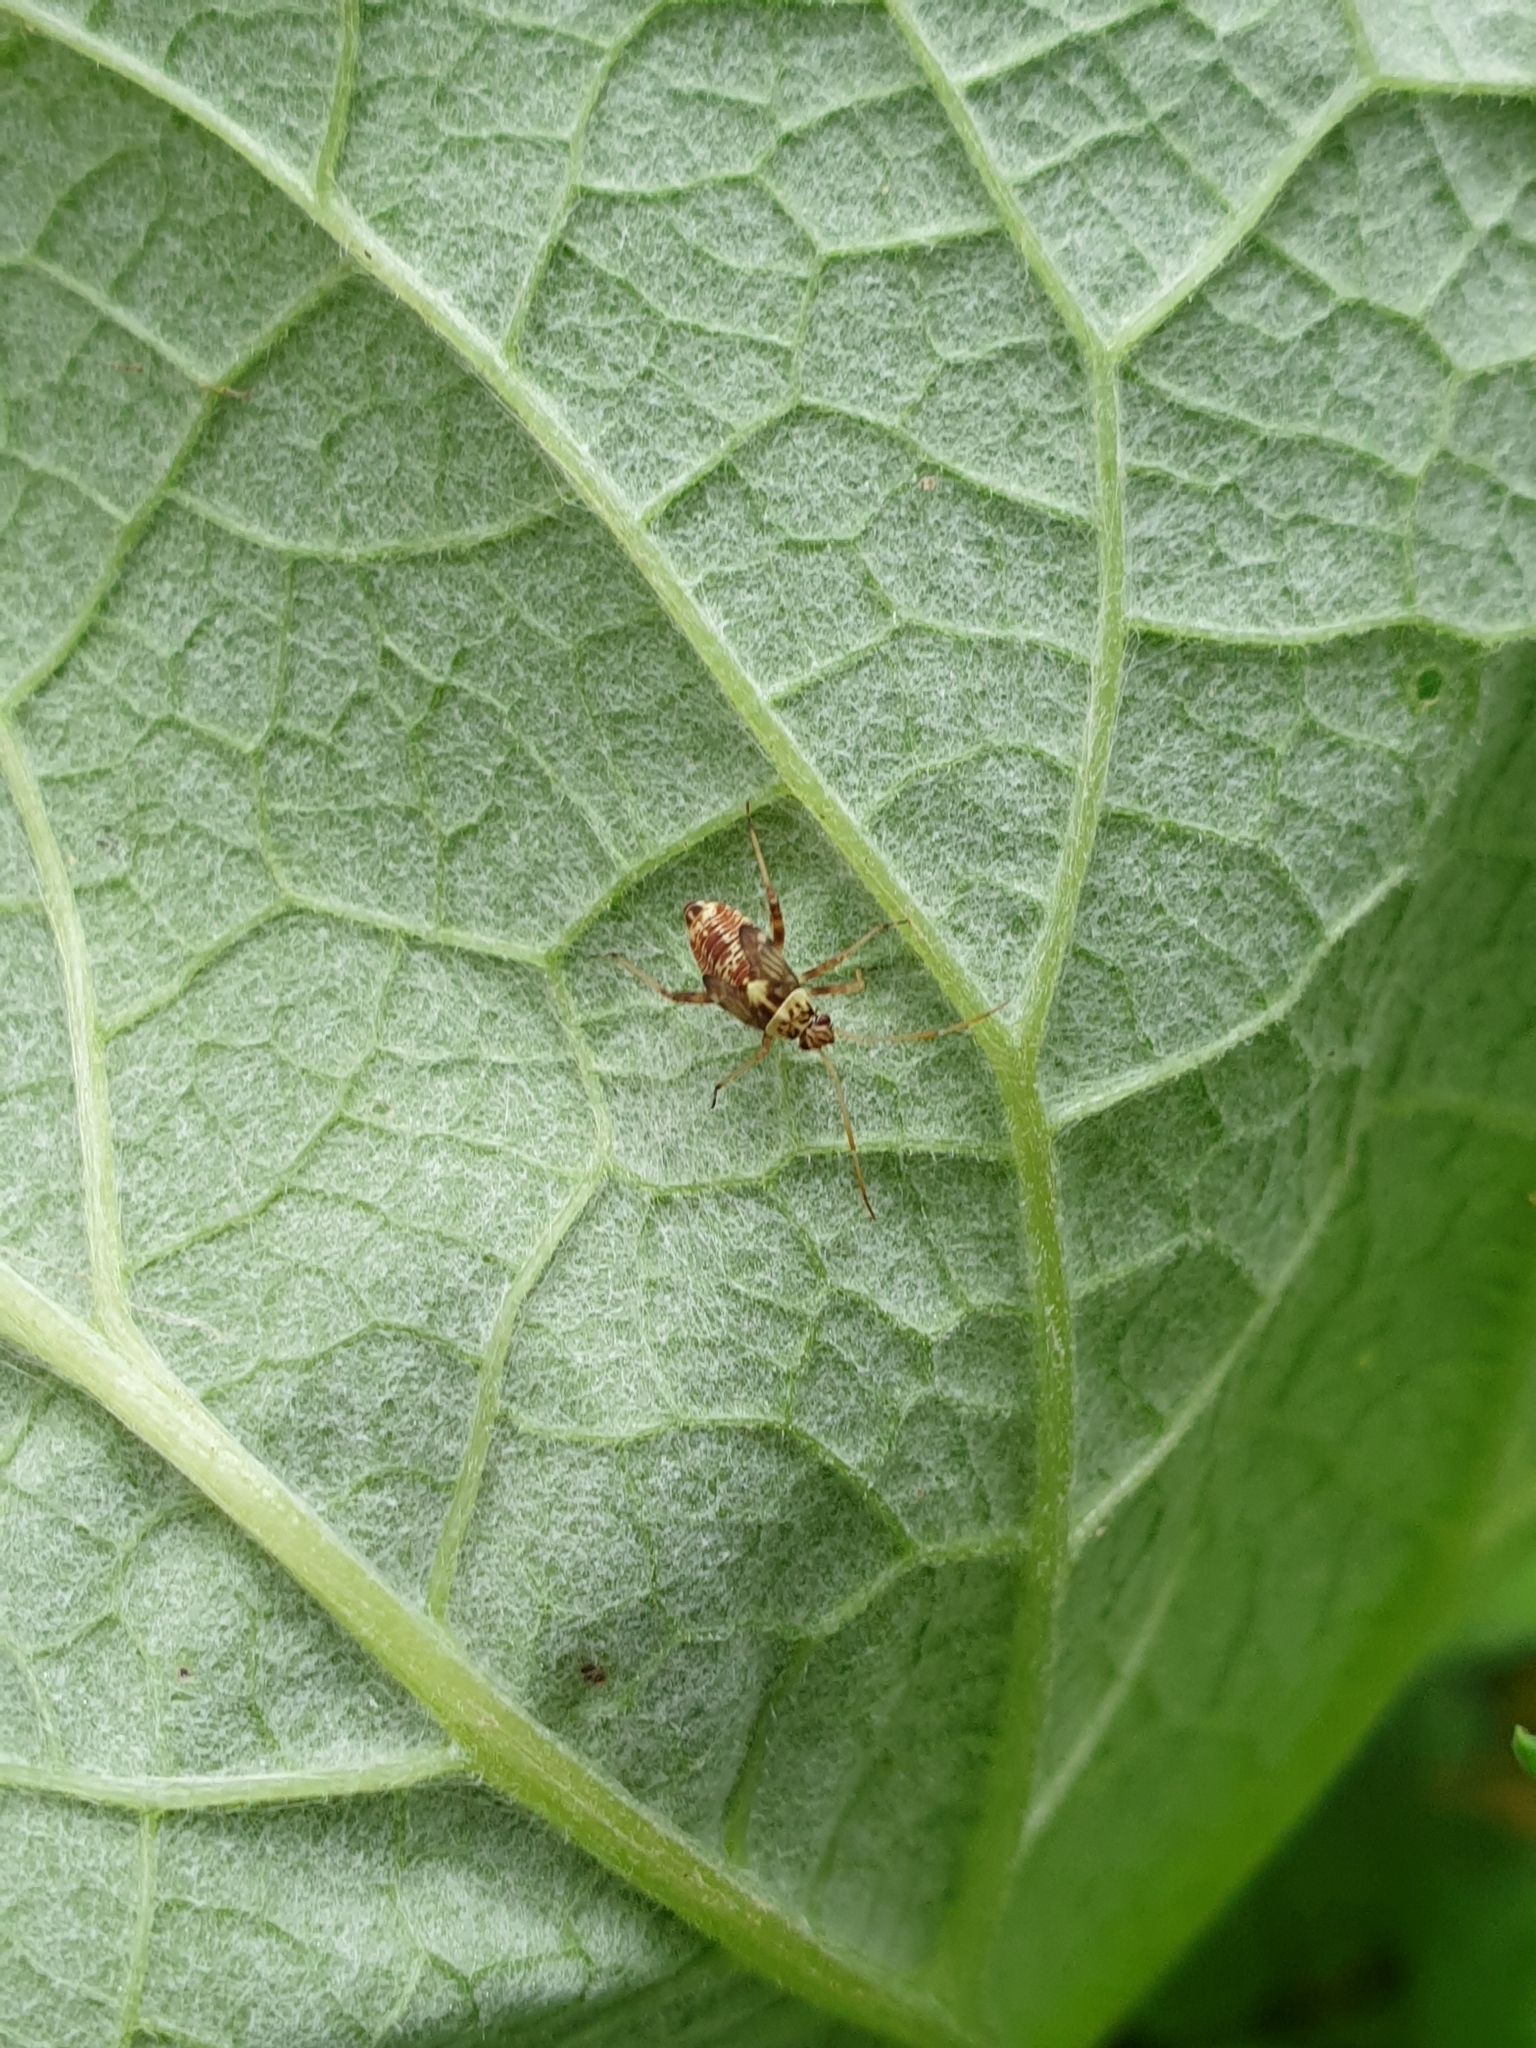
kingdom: Animalia
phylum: Arthropoda
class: Insecta
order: Hemiptera
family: Miridae
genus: Rhabdomiris
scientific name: Rhabdomiris striatellus
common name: Plant bug
